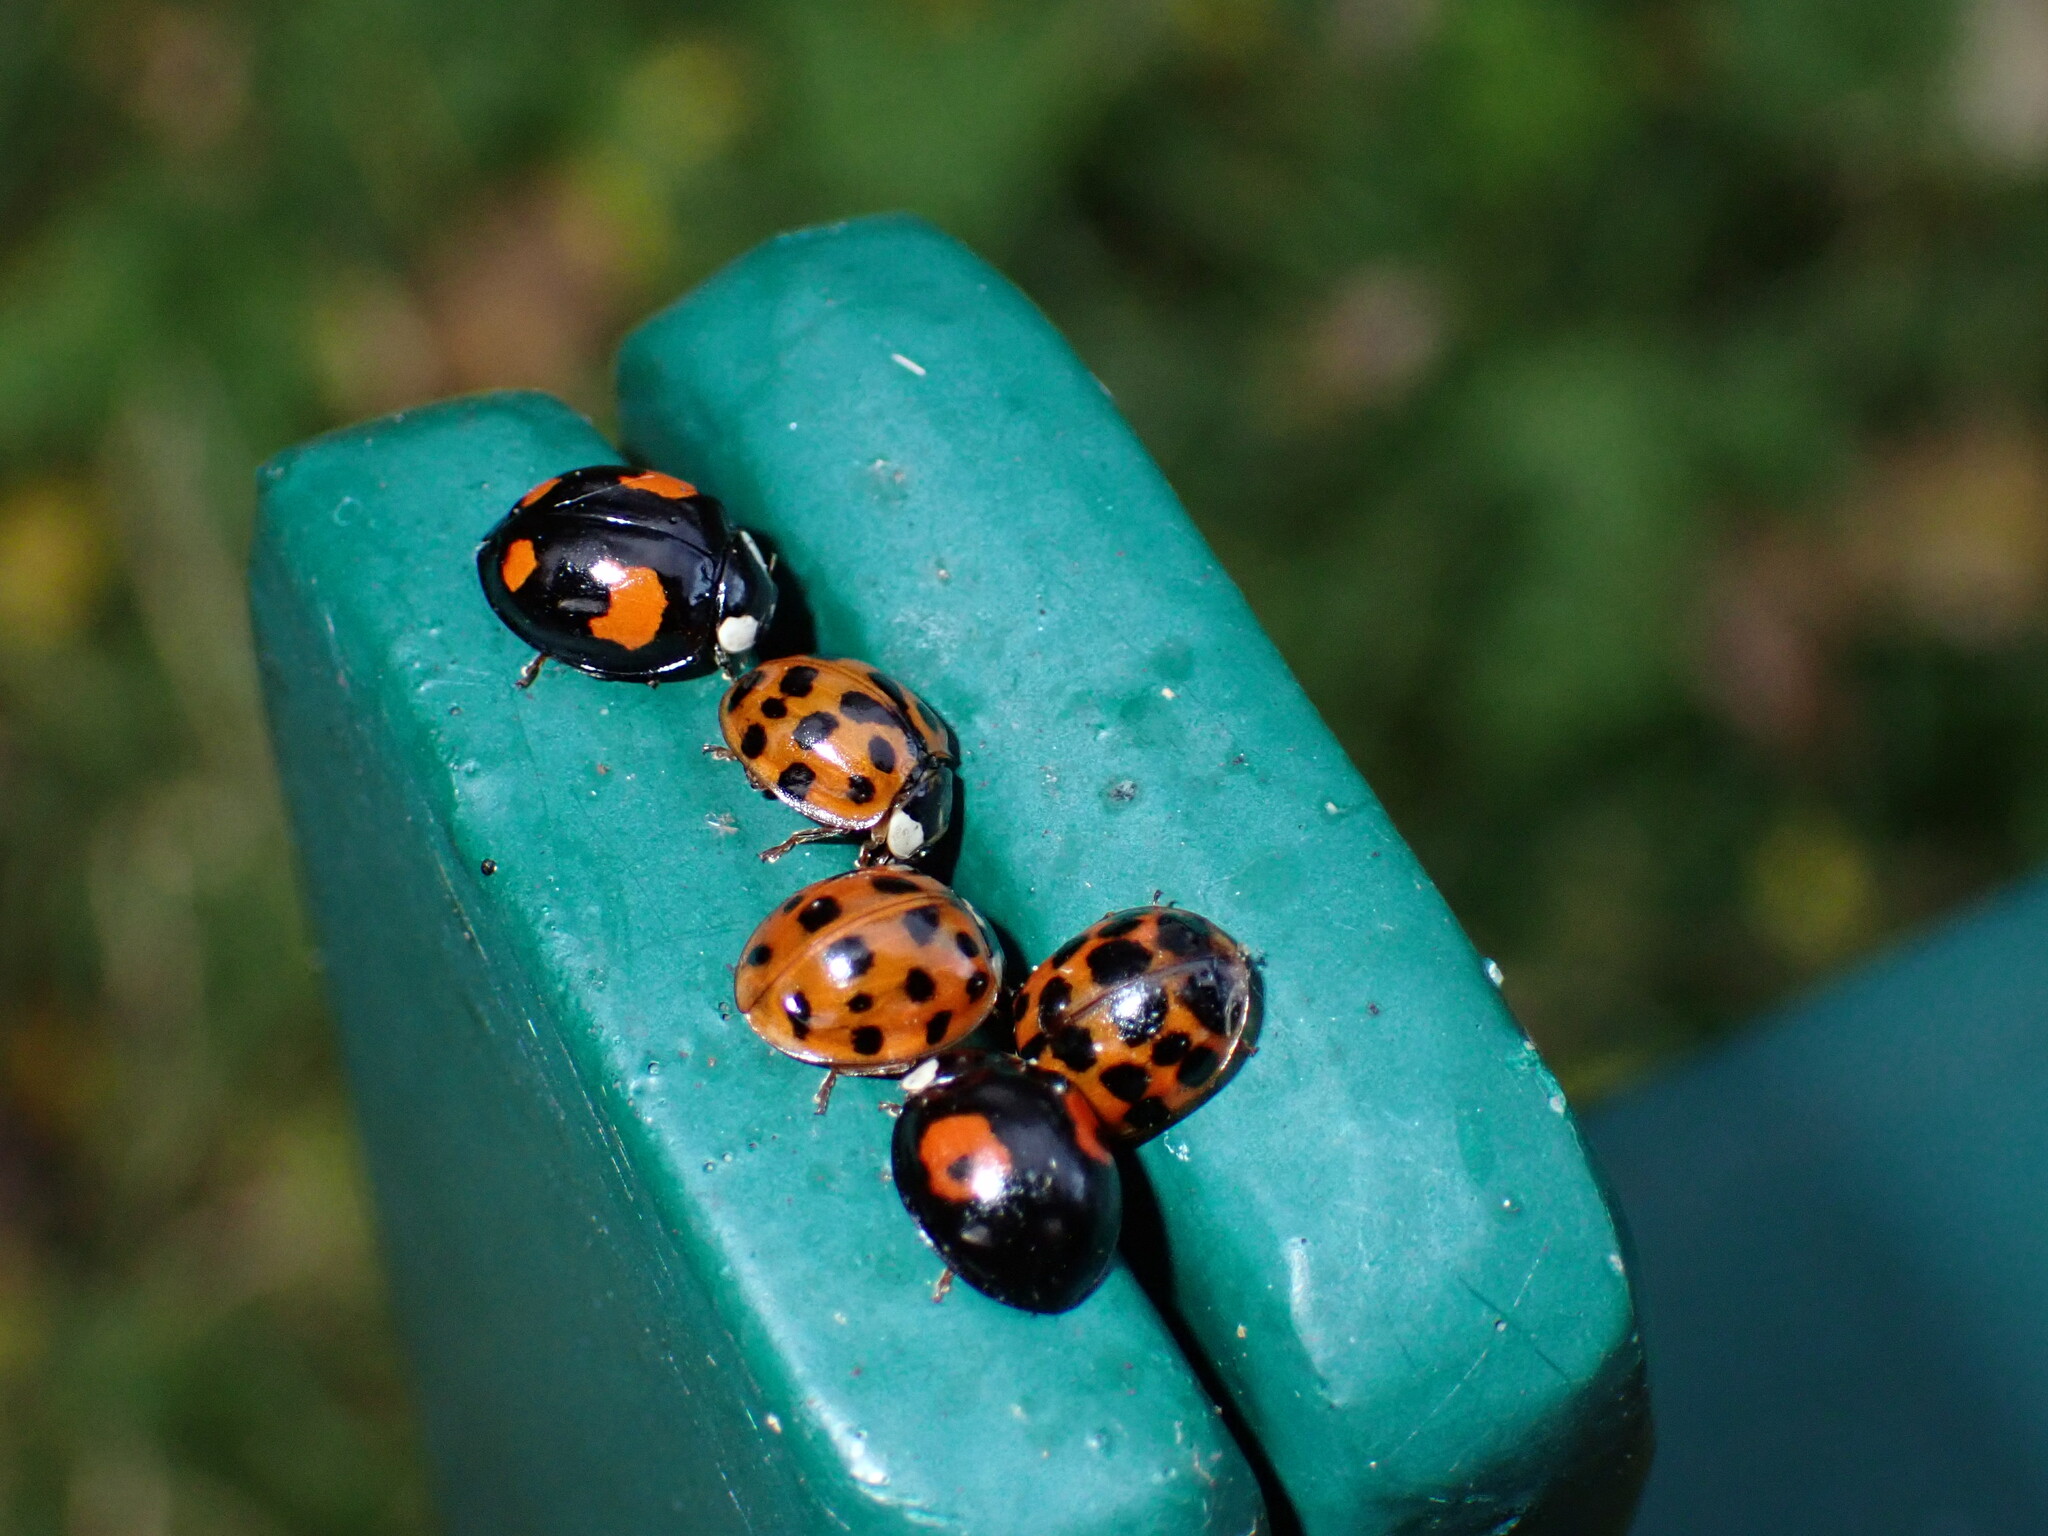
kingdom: Animalia
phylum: Arthropoda
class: Insecta
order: Coleoptera
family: Coccinellidae
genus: Harmonia
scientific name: Harmonia axyridis
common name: Harlequin ladybird
